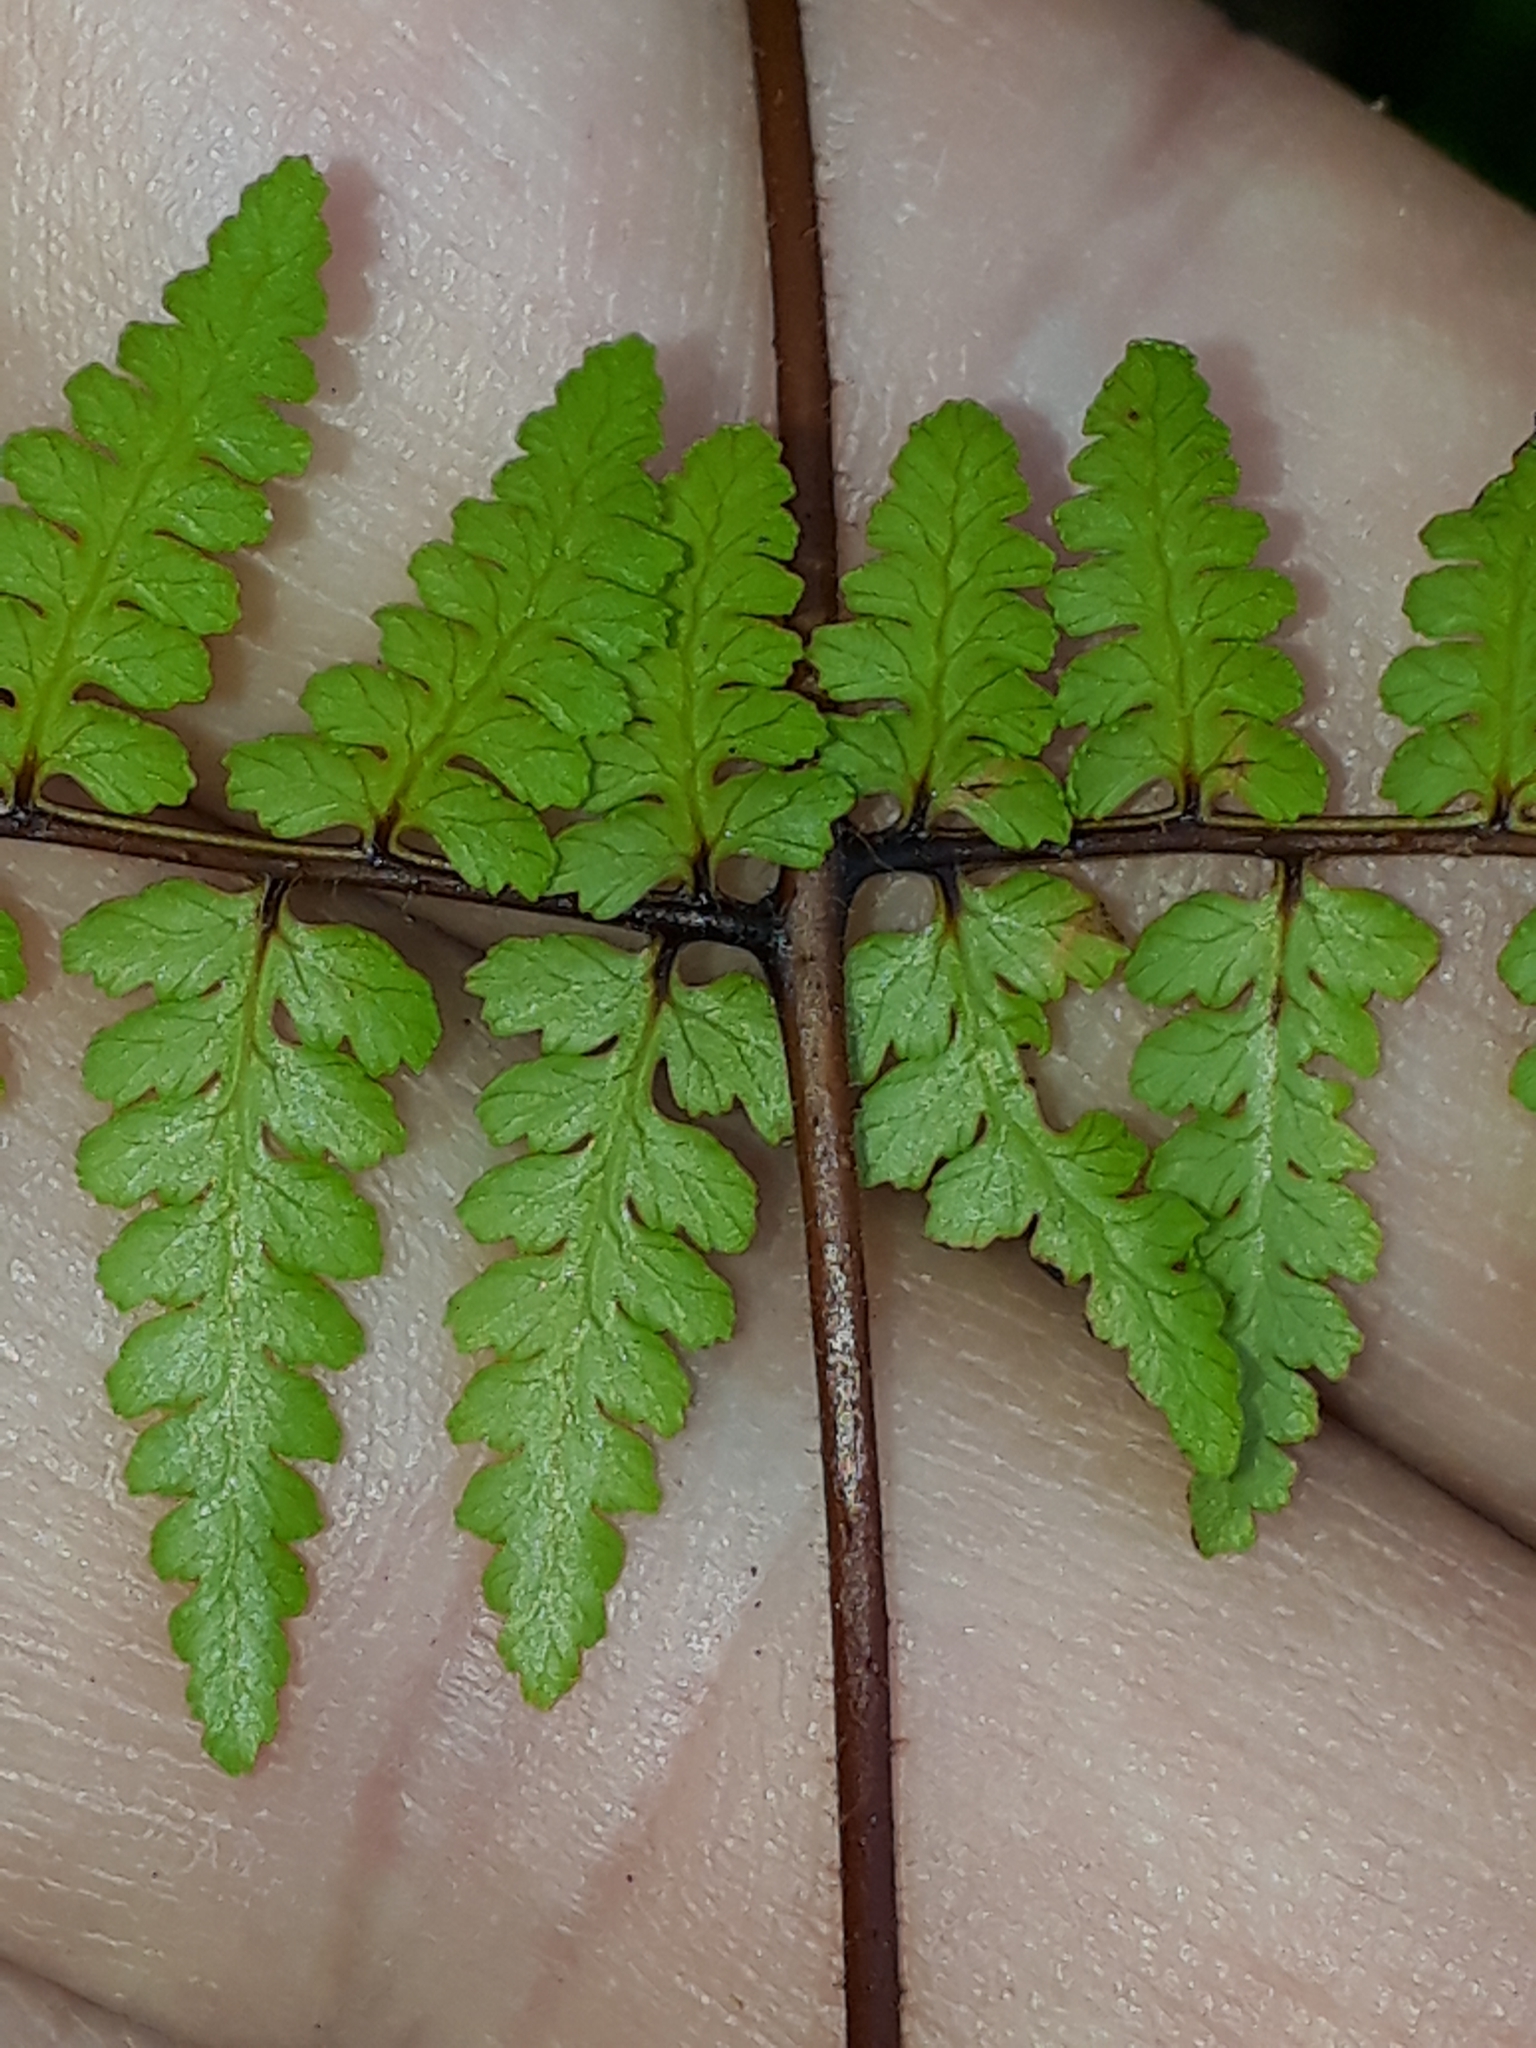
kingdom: Plantae
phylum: Tracheophyta
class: Polypodiopsida
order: Polypodiales
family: Dennstaedtiaceae
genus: Hiya
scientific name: Hiya distans
